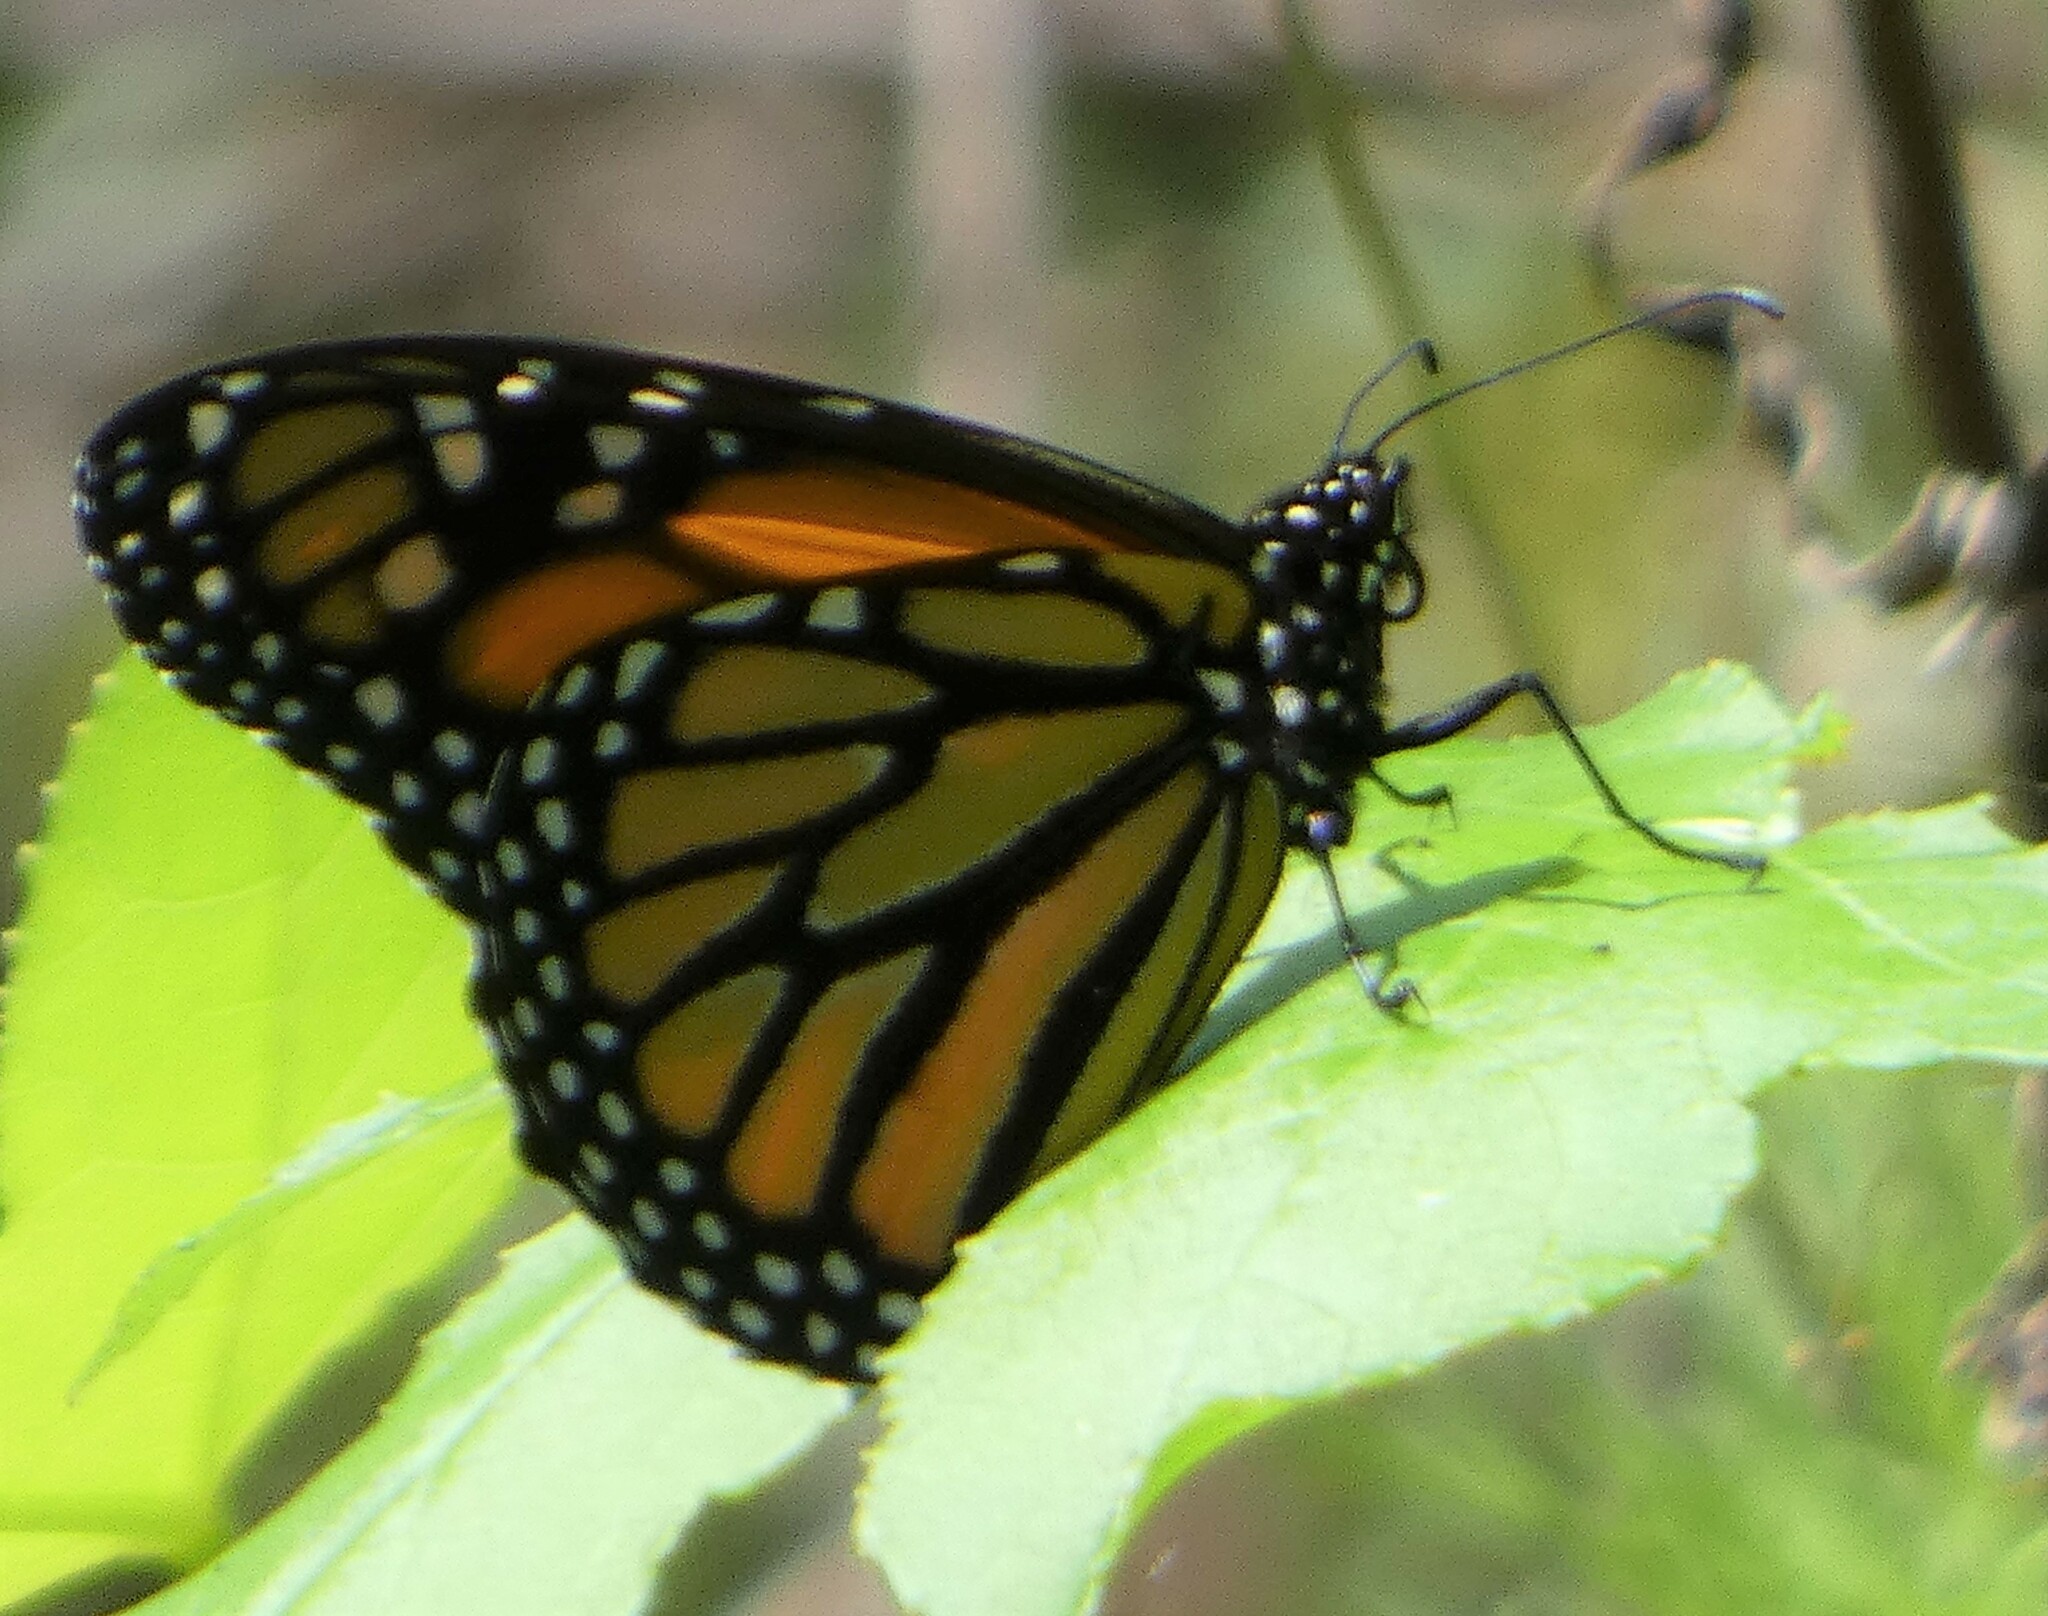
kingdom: Animalia
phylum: Arthropoda
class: Insecta
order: Lepidoptera
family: Nymphalidae
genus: Danaus
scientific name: Danaus plexippus
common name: Monarch
